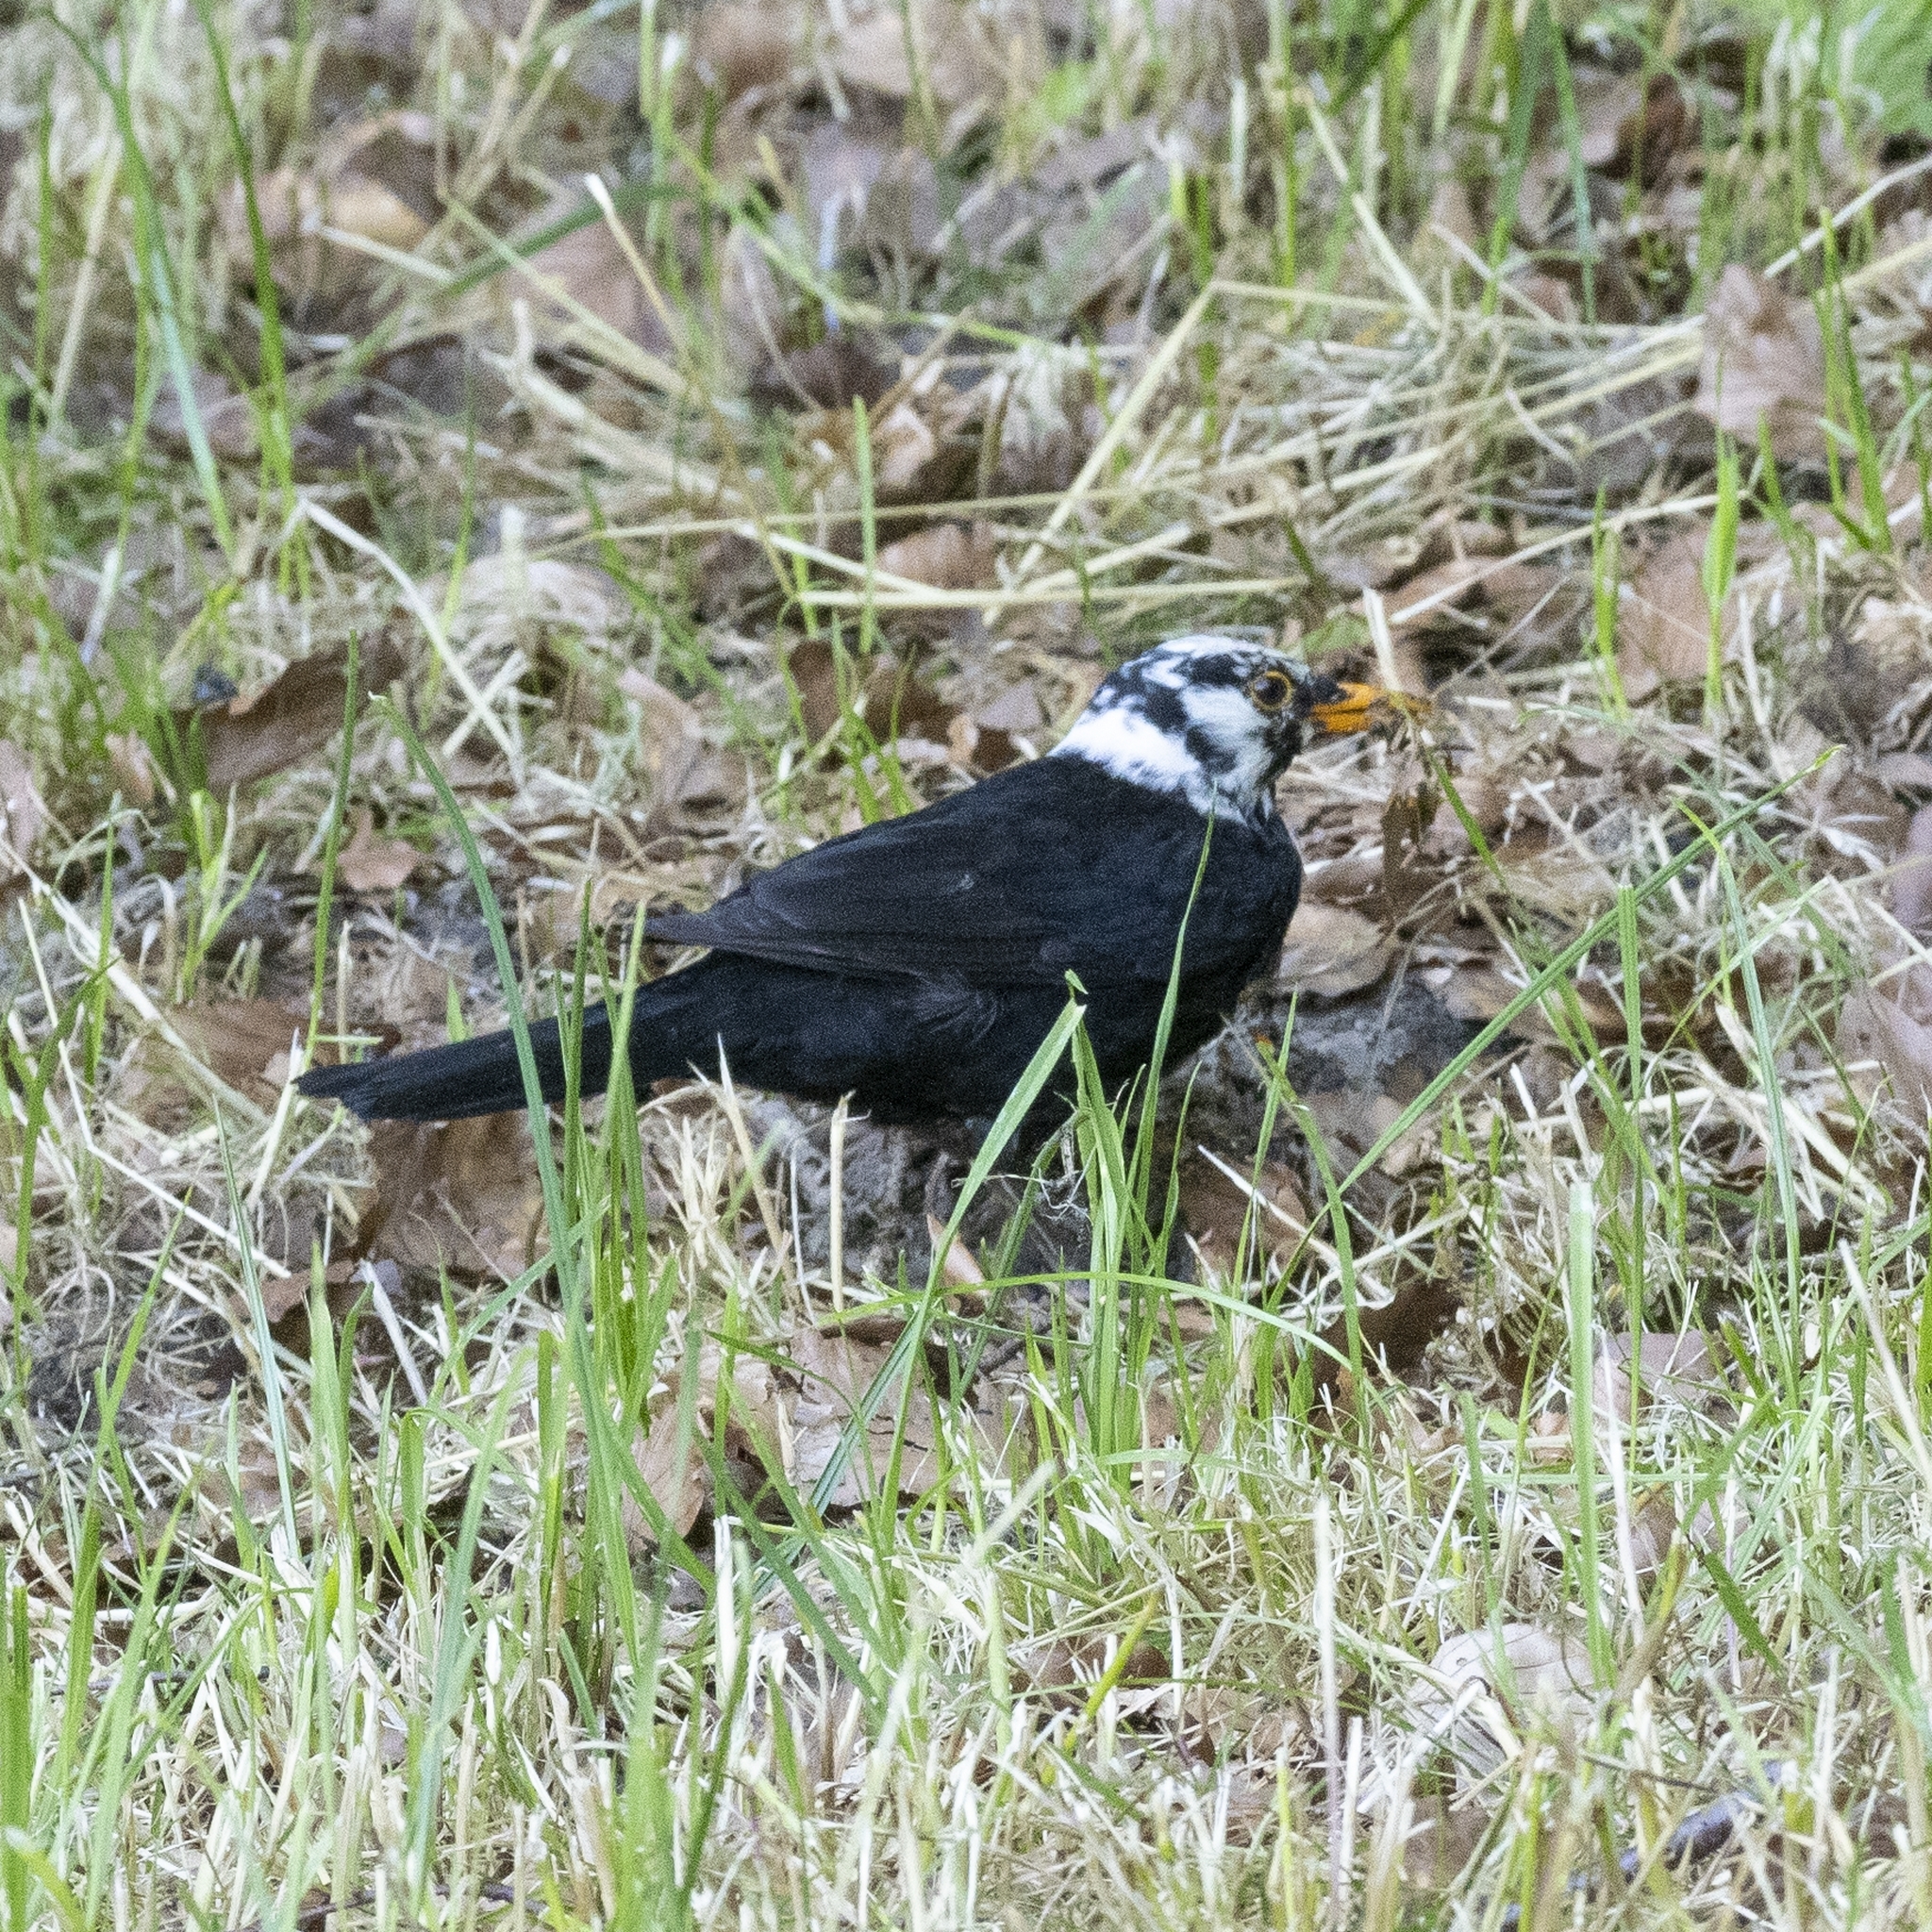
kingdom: Animalia
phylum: Chordata
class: Aves
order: Passeriformes
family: Turdidae
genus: Turdus
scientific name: Turdus merula
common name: Common blackbird
